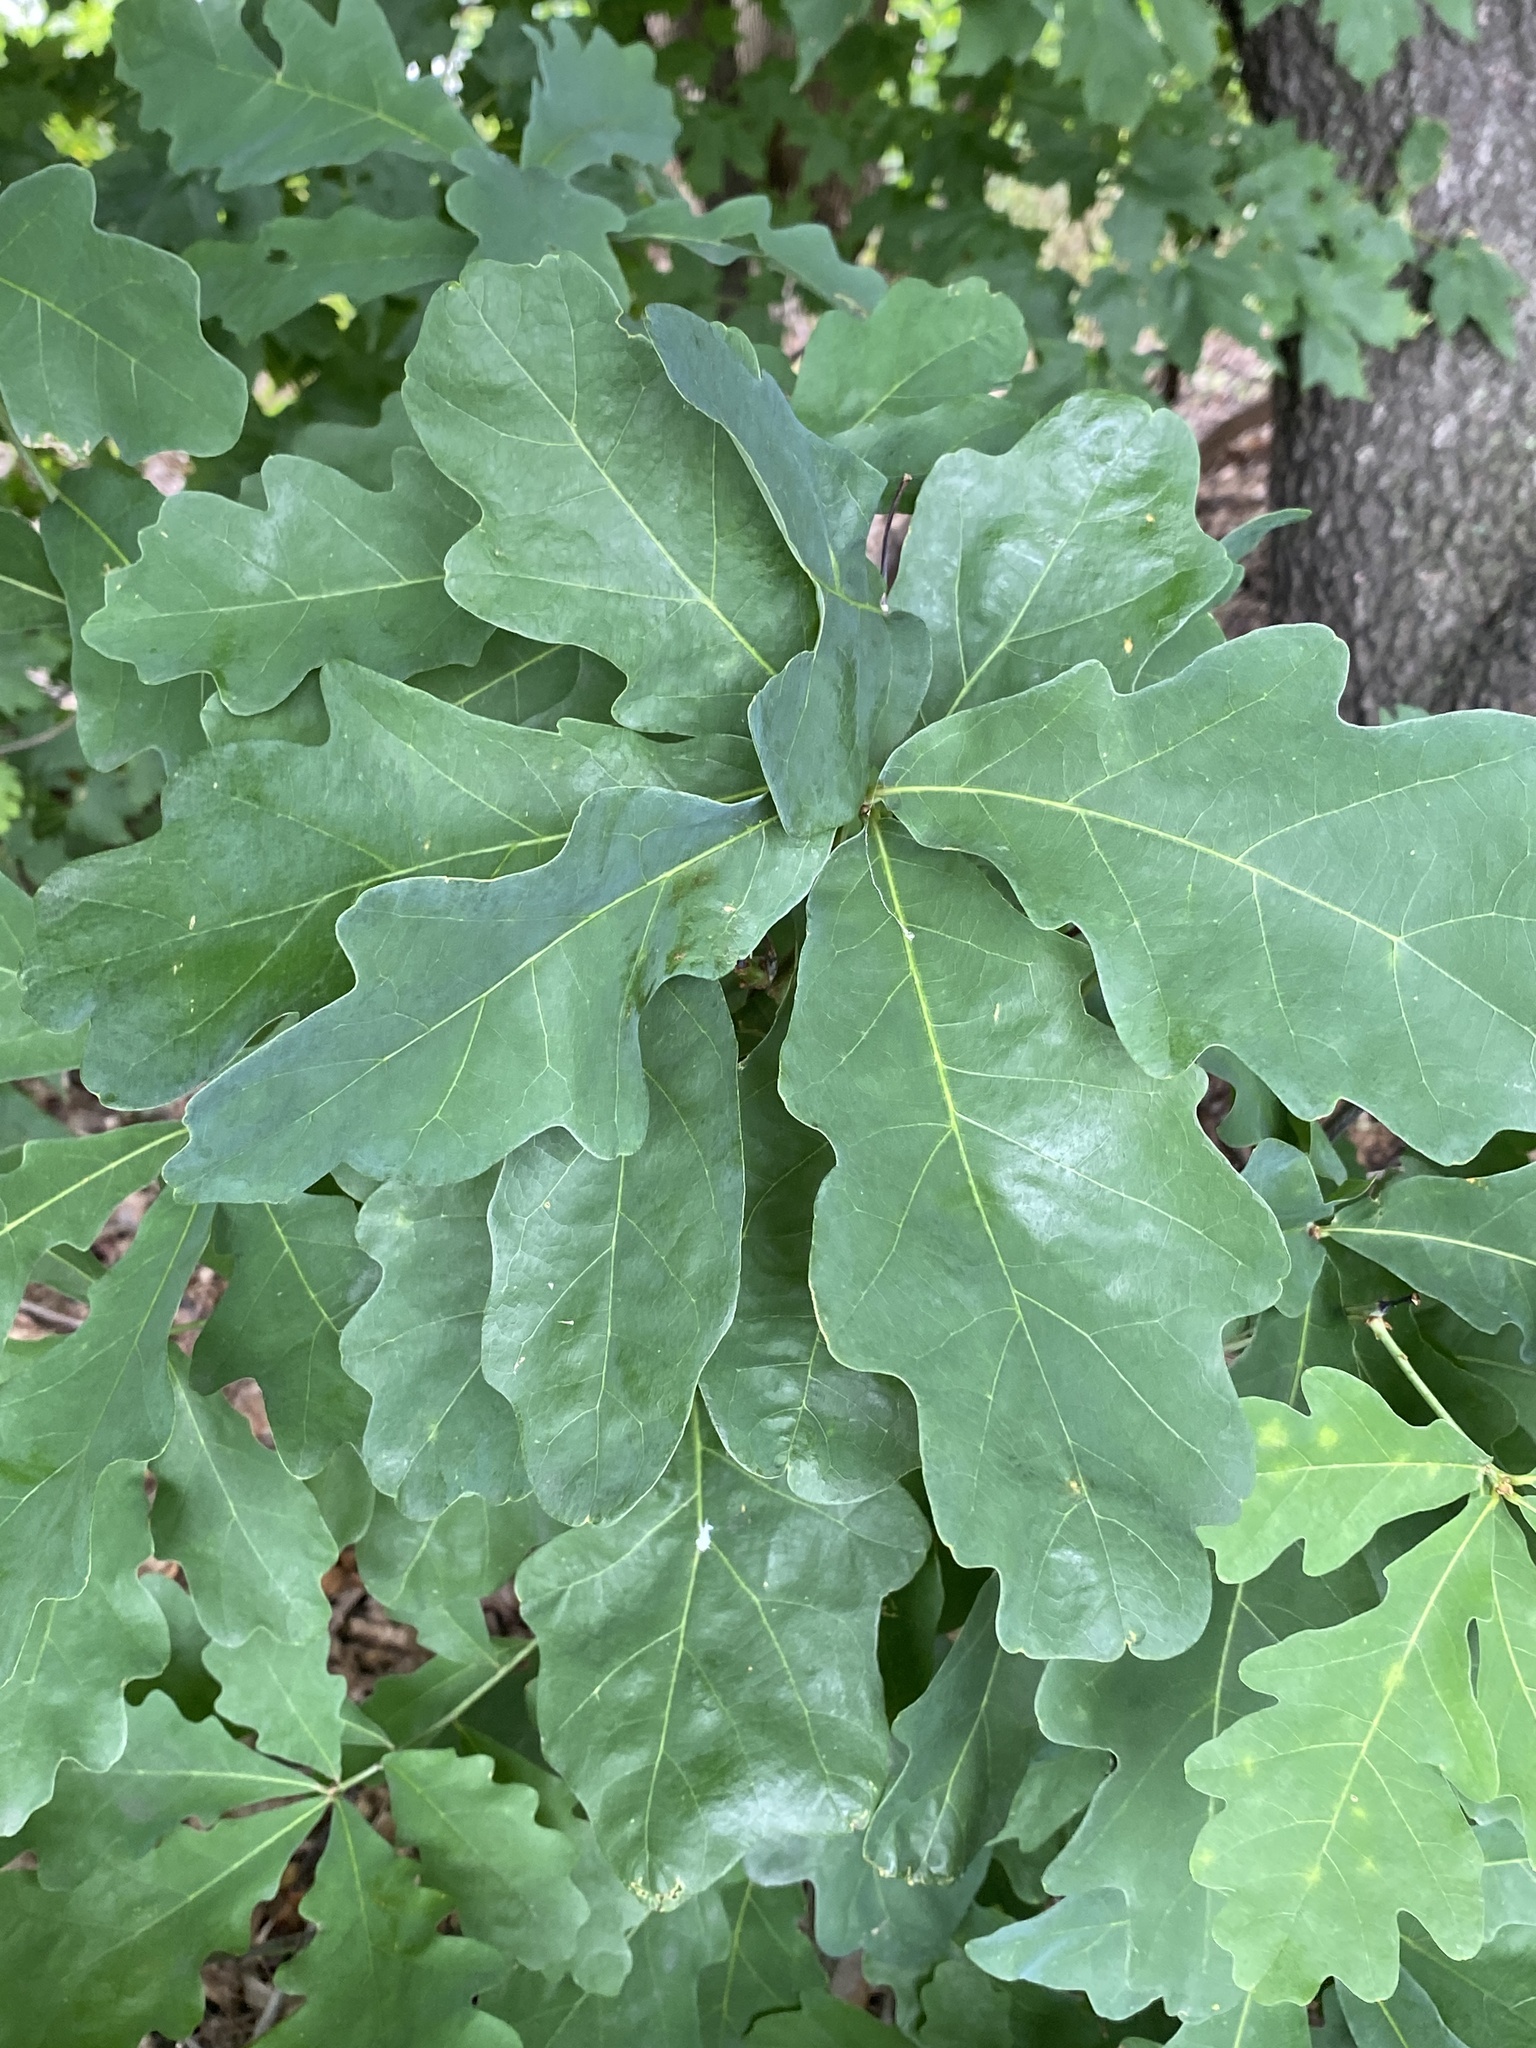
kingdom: Plantae
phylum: Tracheophyta
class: Magnoliopsida
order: Fagales
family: Fagaceae
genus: Quercus
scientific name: Quercus alba
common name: White oak
